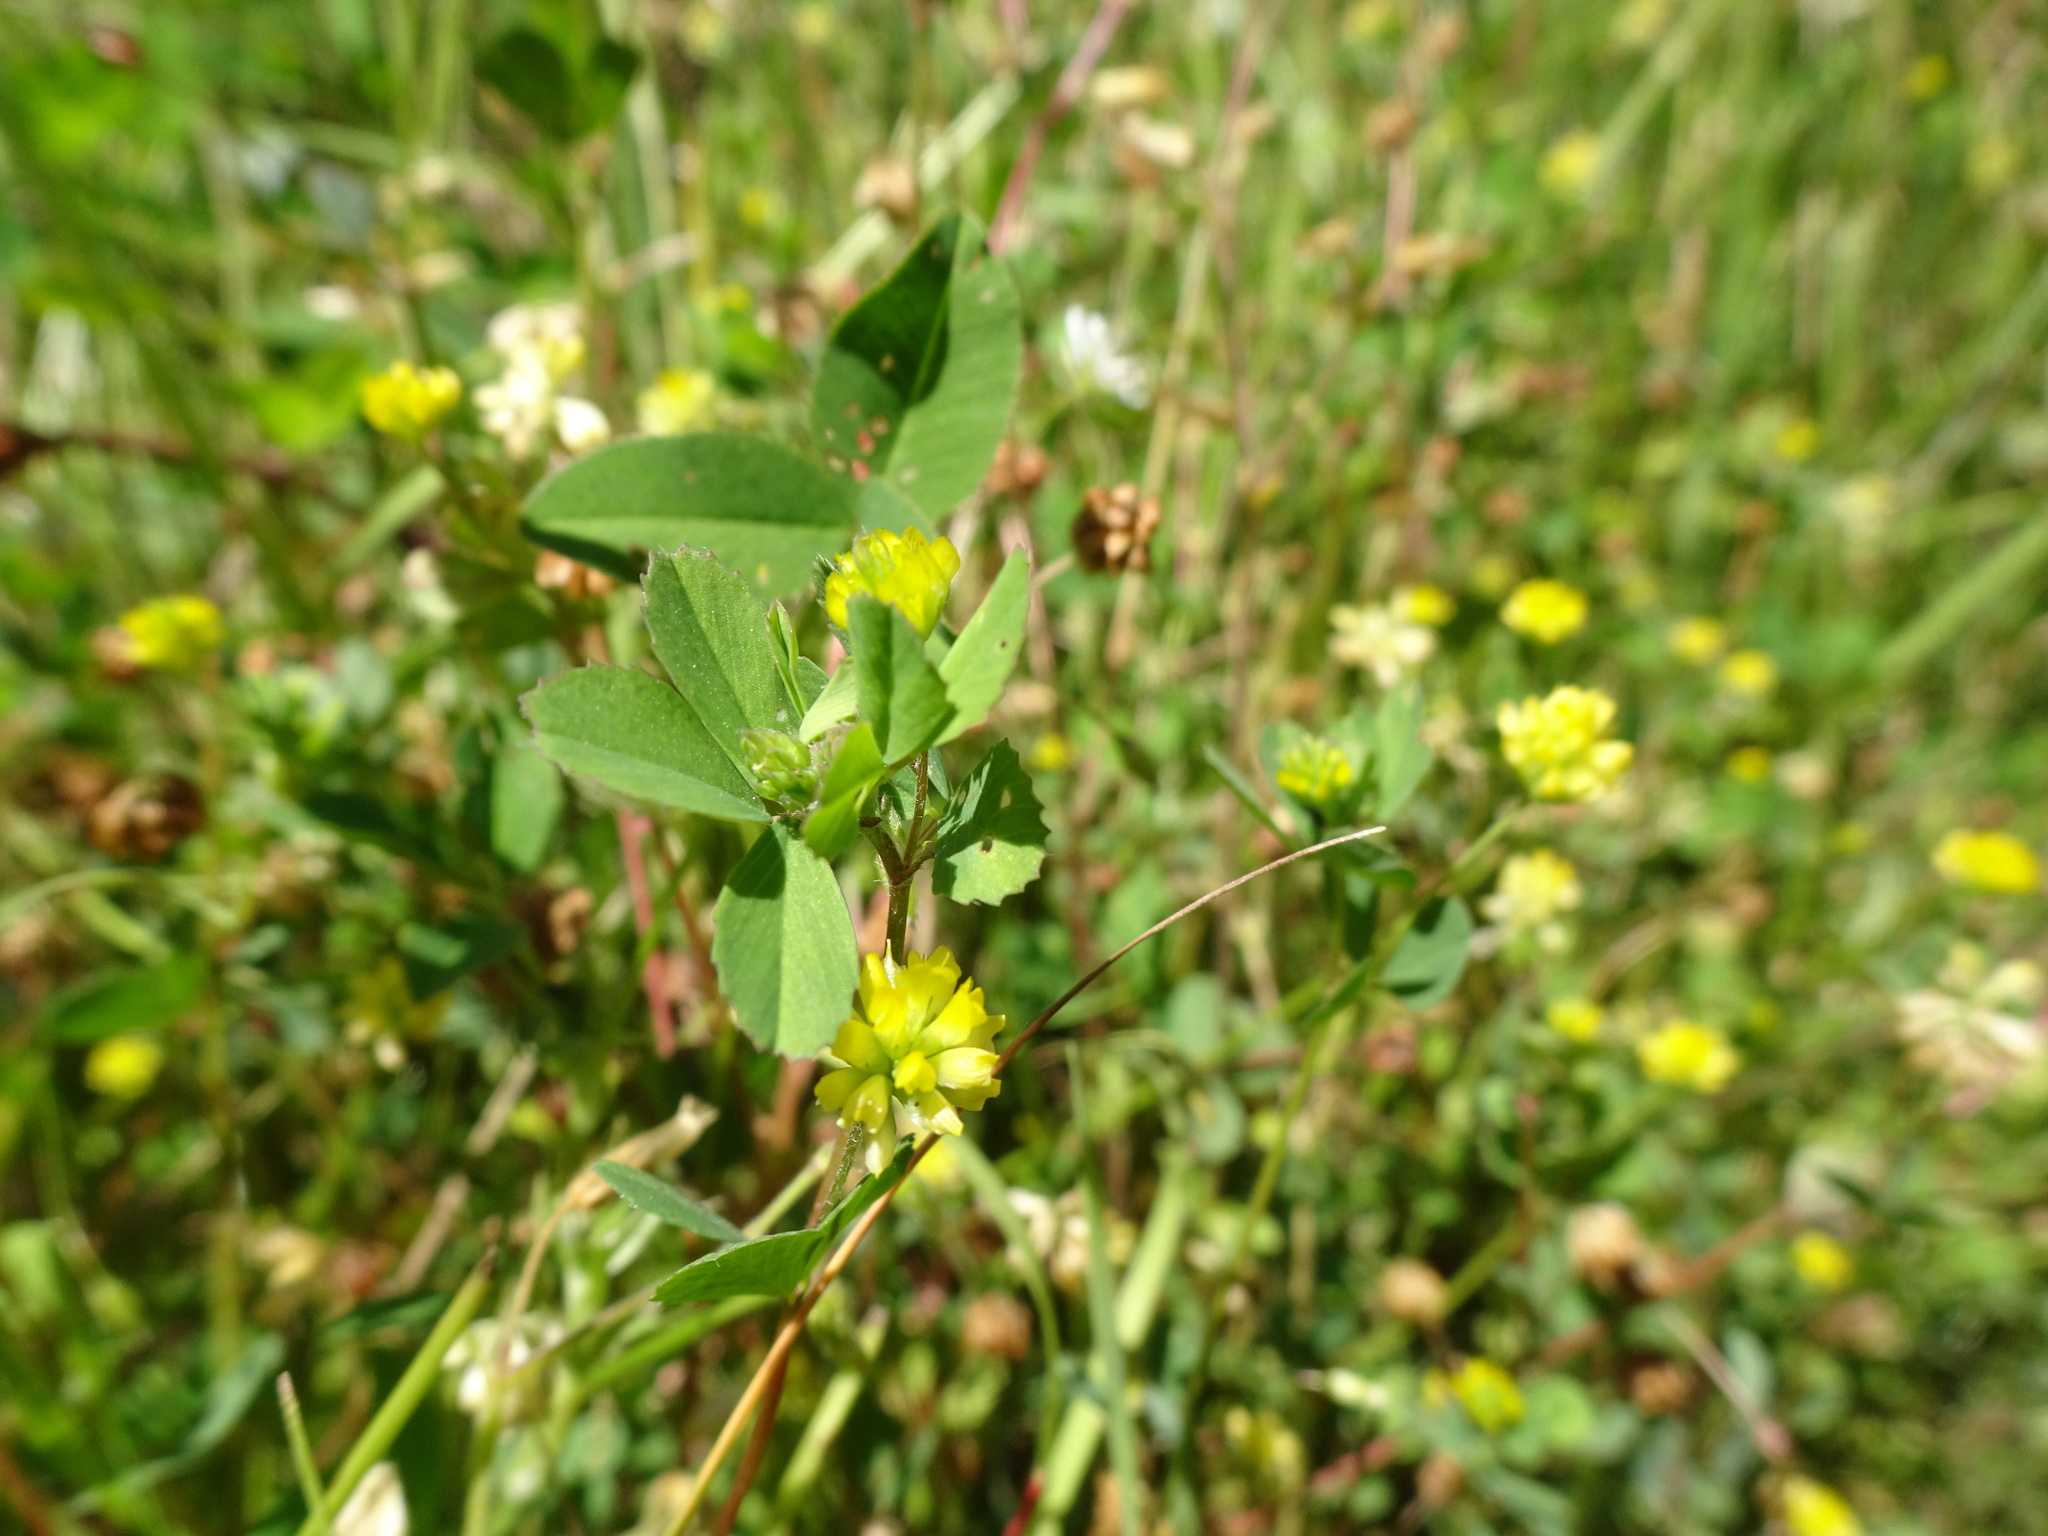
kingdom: Plantae
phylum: Tracheophyta
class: Magnoliopsida
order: Fabales
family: Fabaceae
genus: Trifolium
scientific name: Trifolium dubium
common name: Suckling clover
